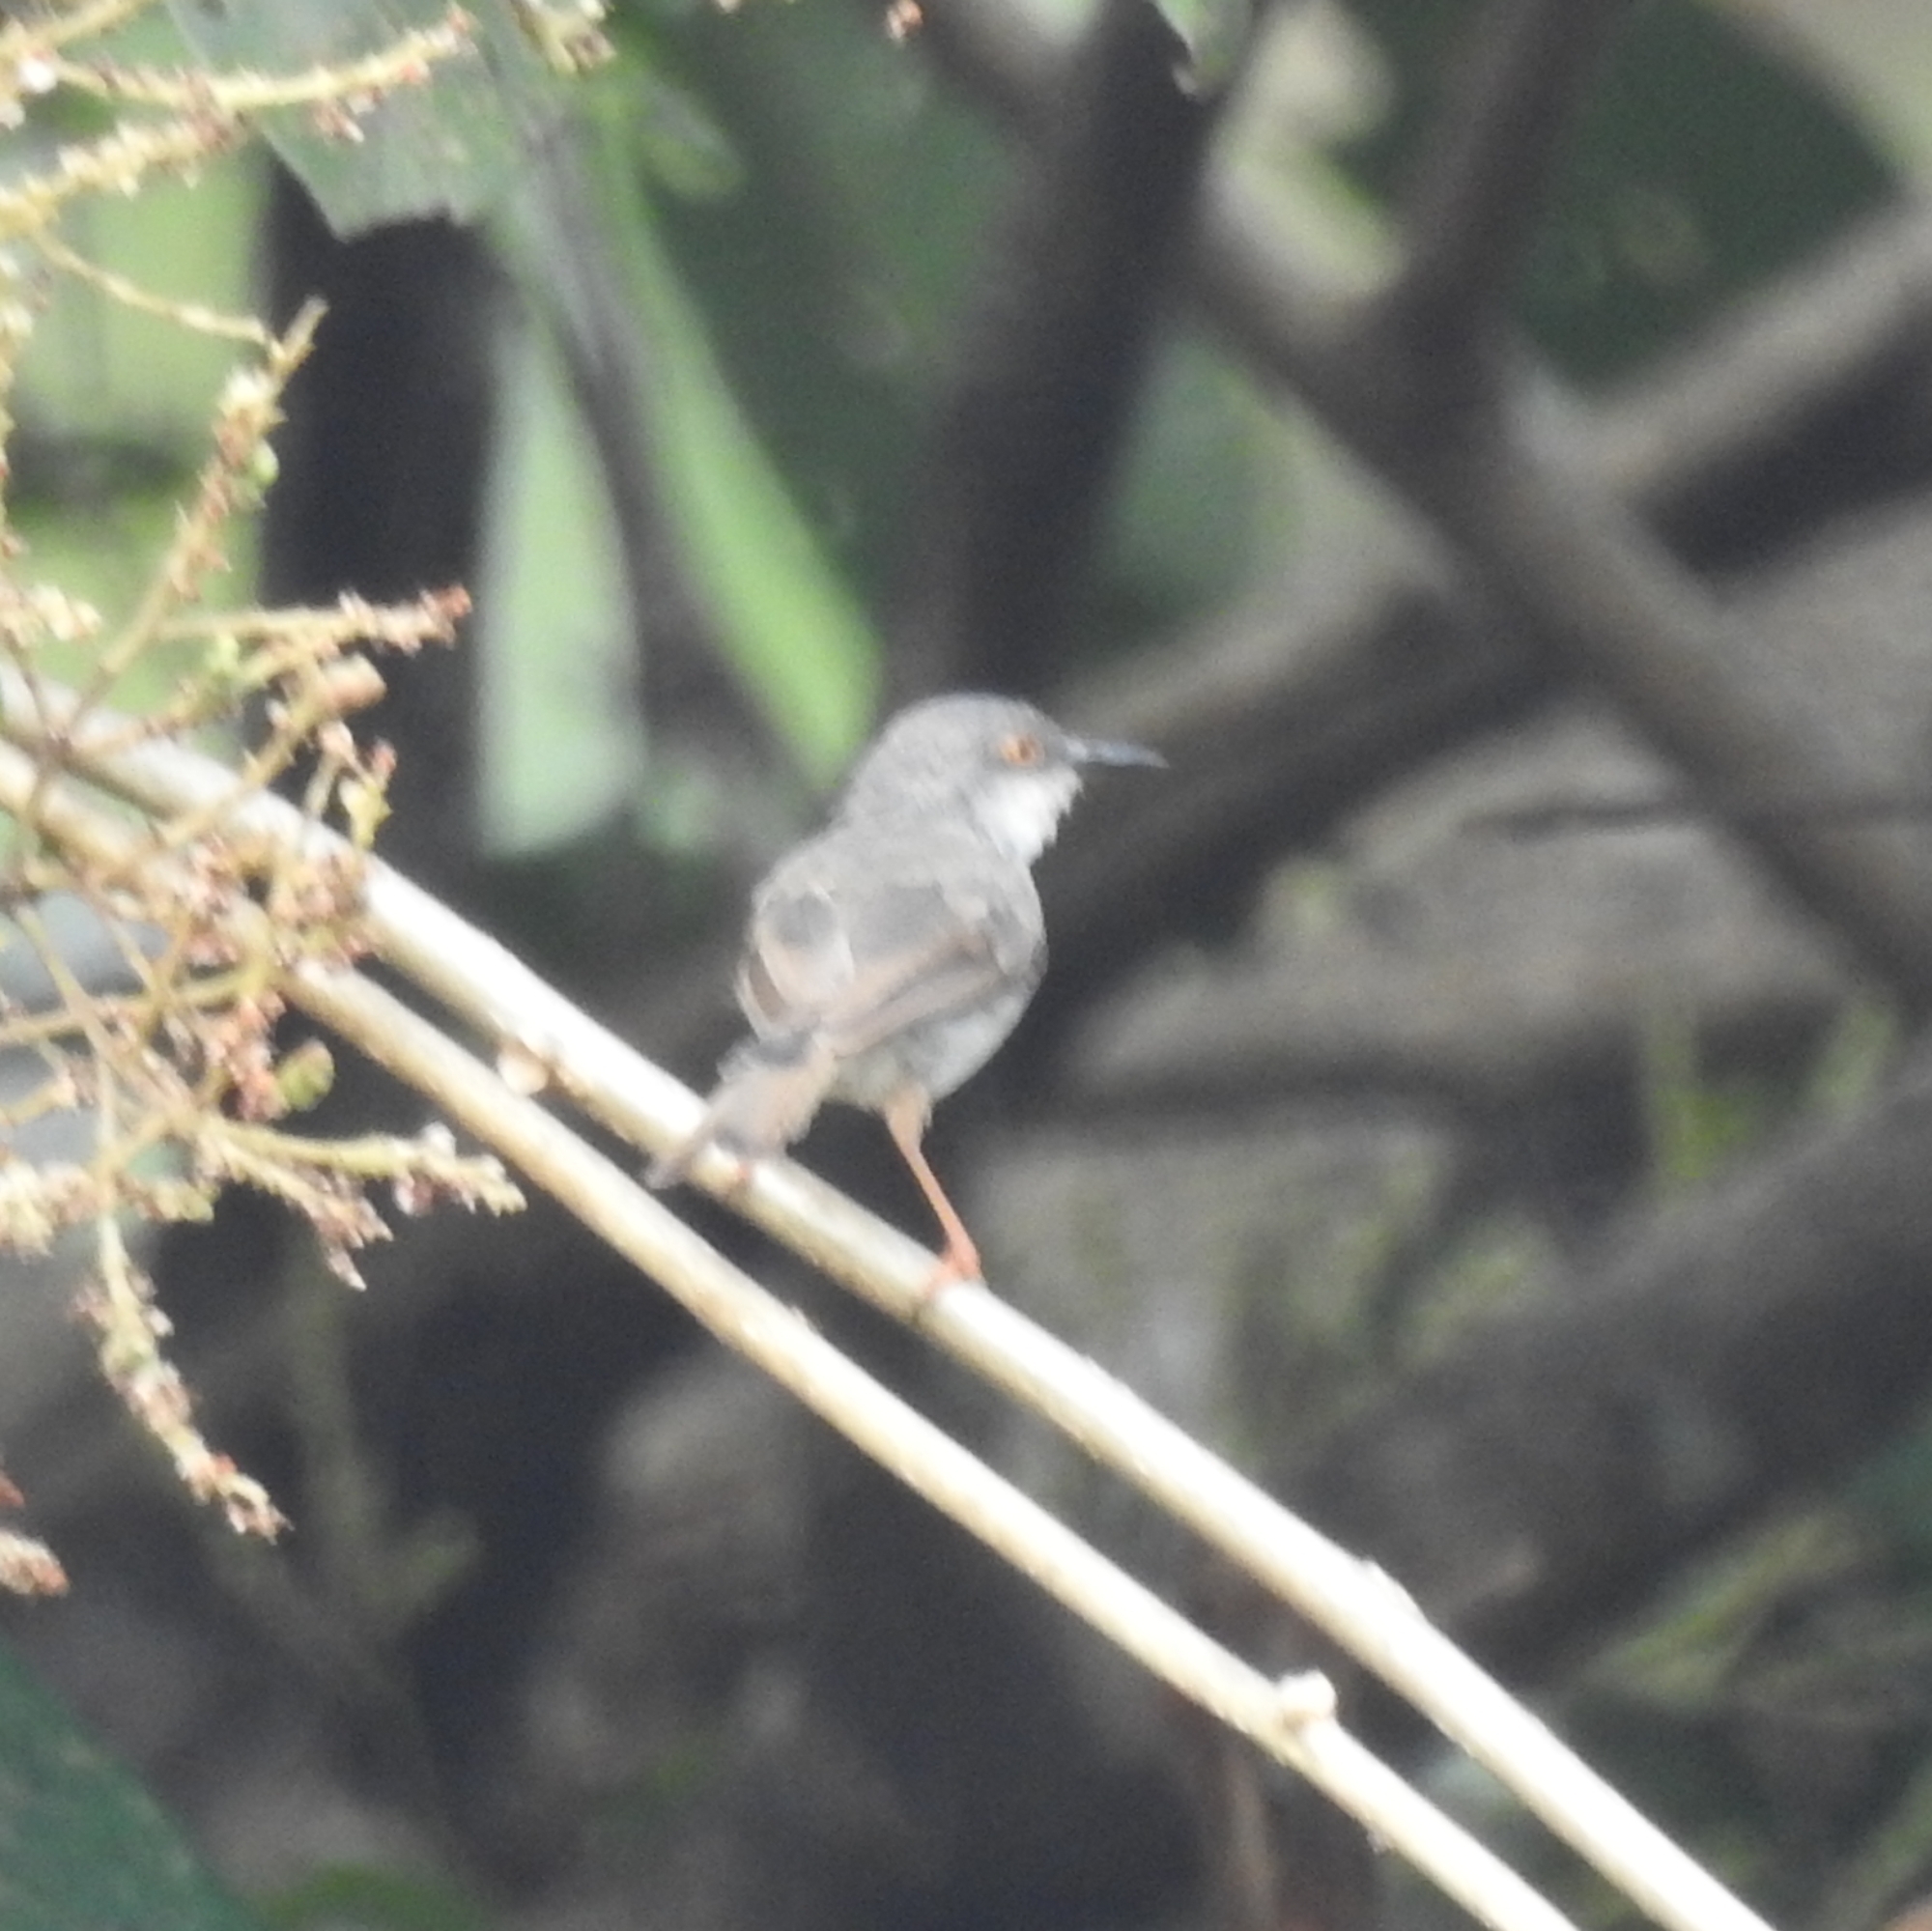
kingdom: Animalia
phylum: Chordata
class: Aves
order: Passeriformes
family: Cisticolidae
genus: Prinia
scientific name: Prinia hodgsonii
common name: Grey-breasted prinia
